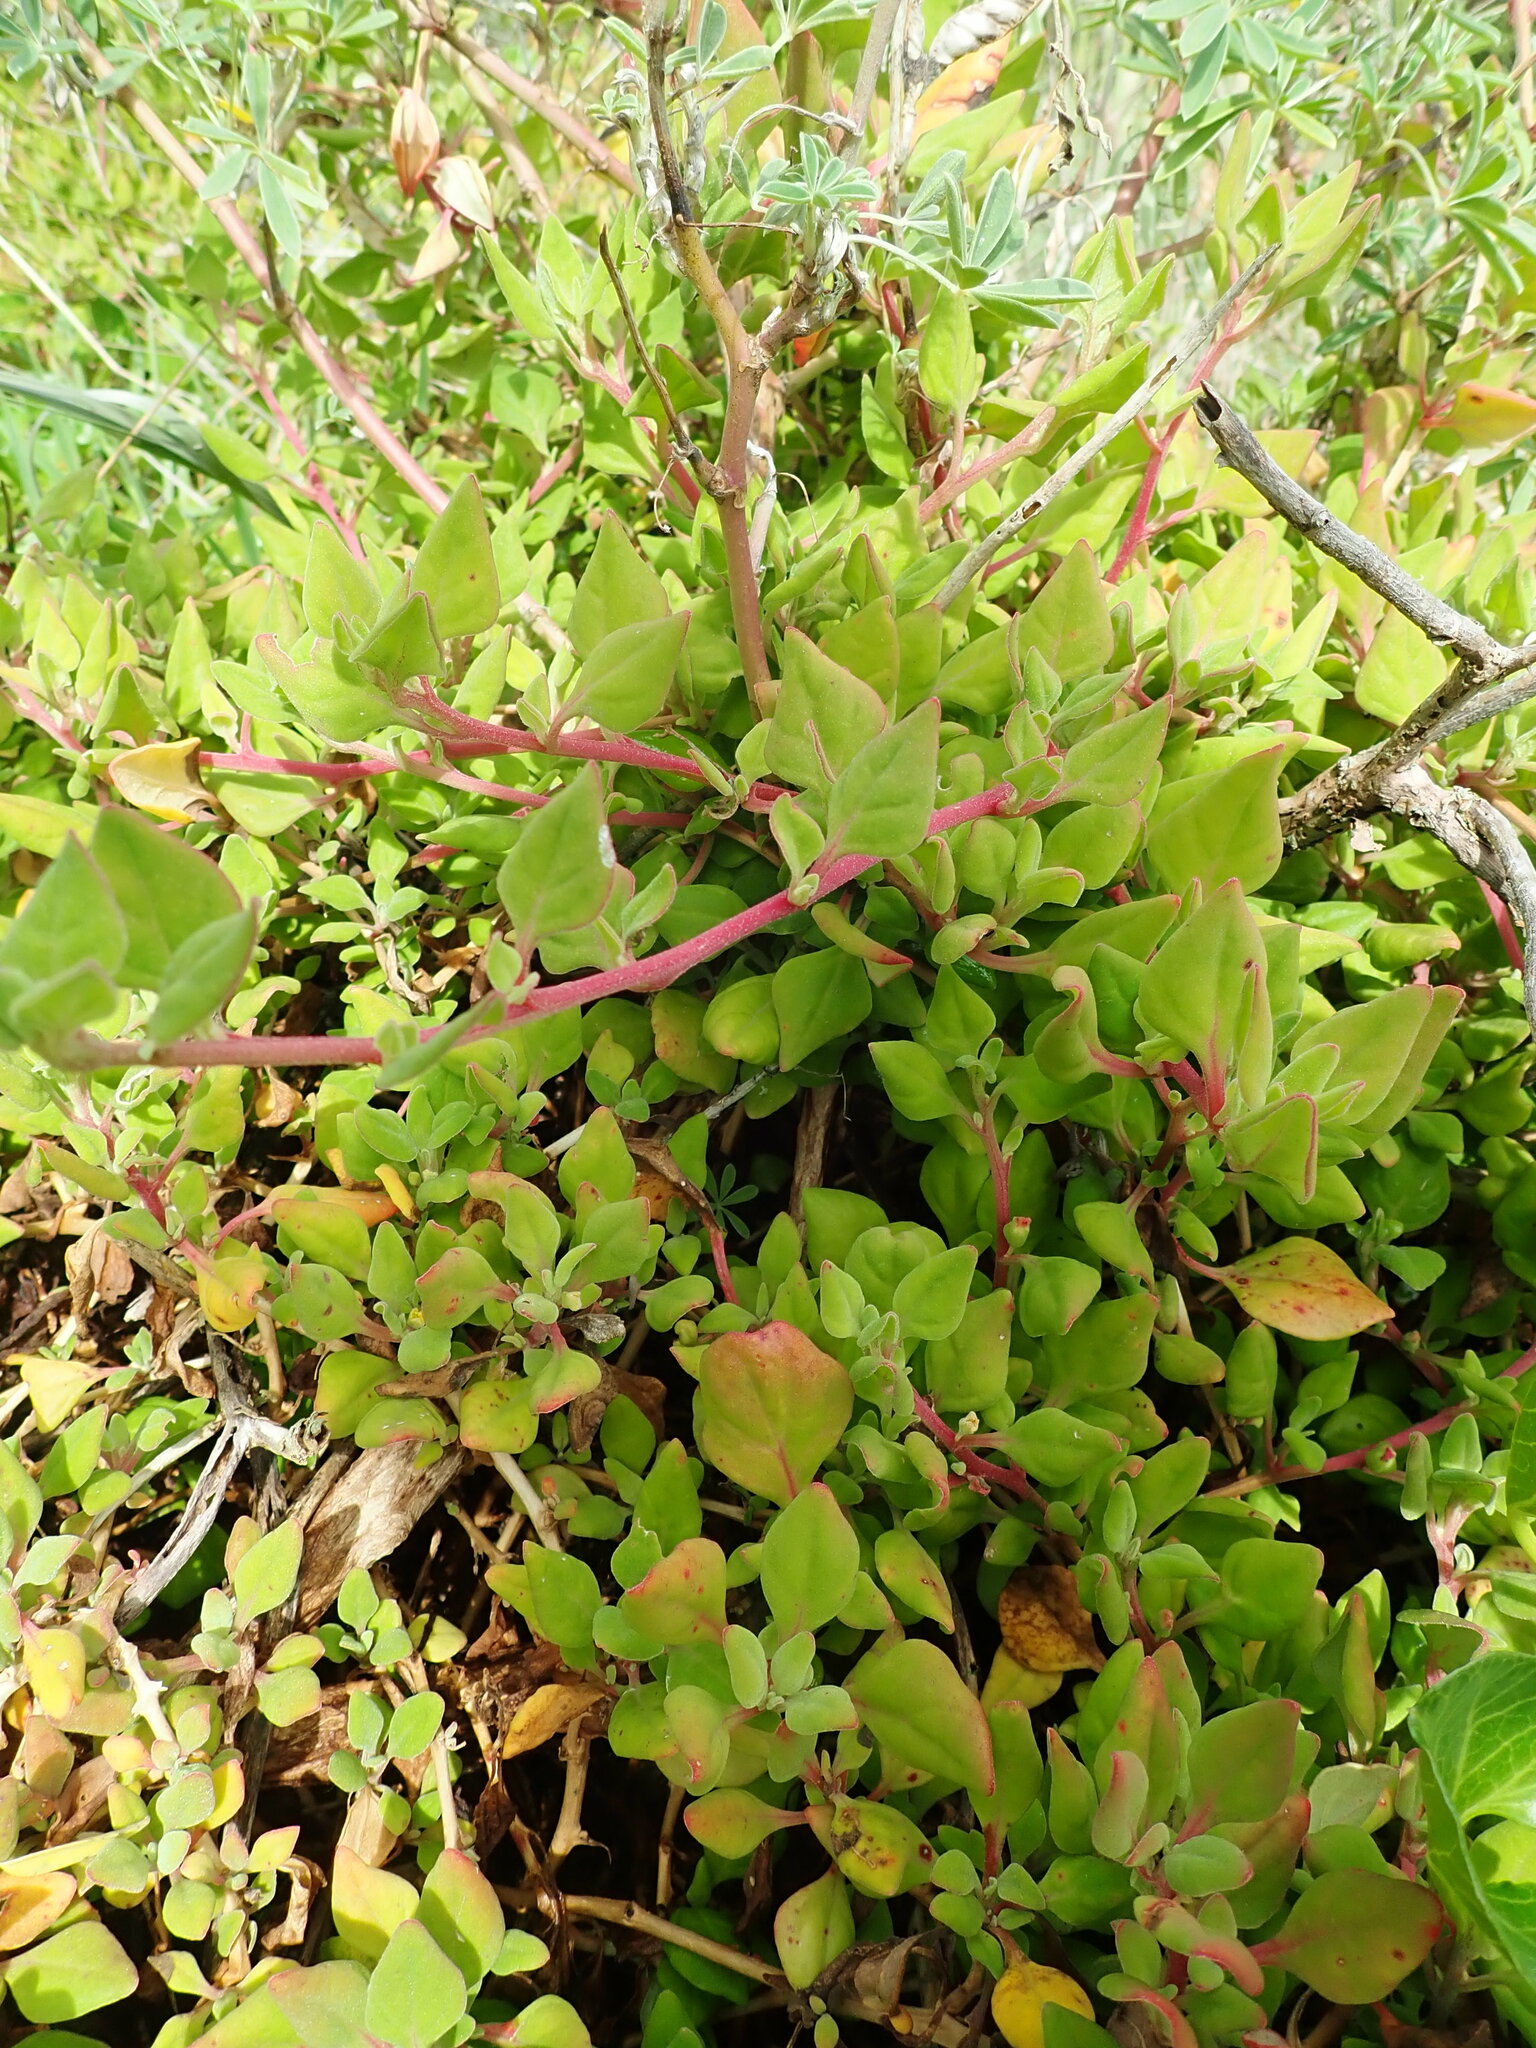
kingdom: Plantae
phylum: Tracheophyta
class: Magnoliopsida
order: Caryophyllales
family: Aizoaceae
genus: Tetragonia
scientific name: Tetragonia implexicoma
